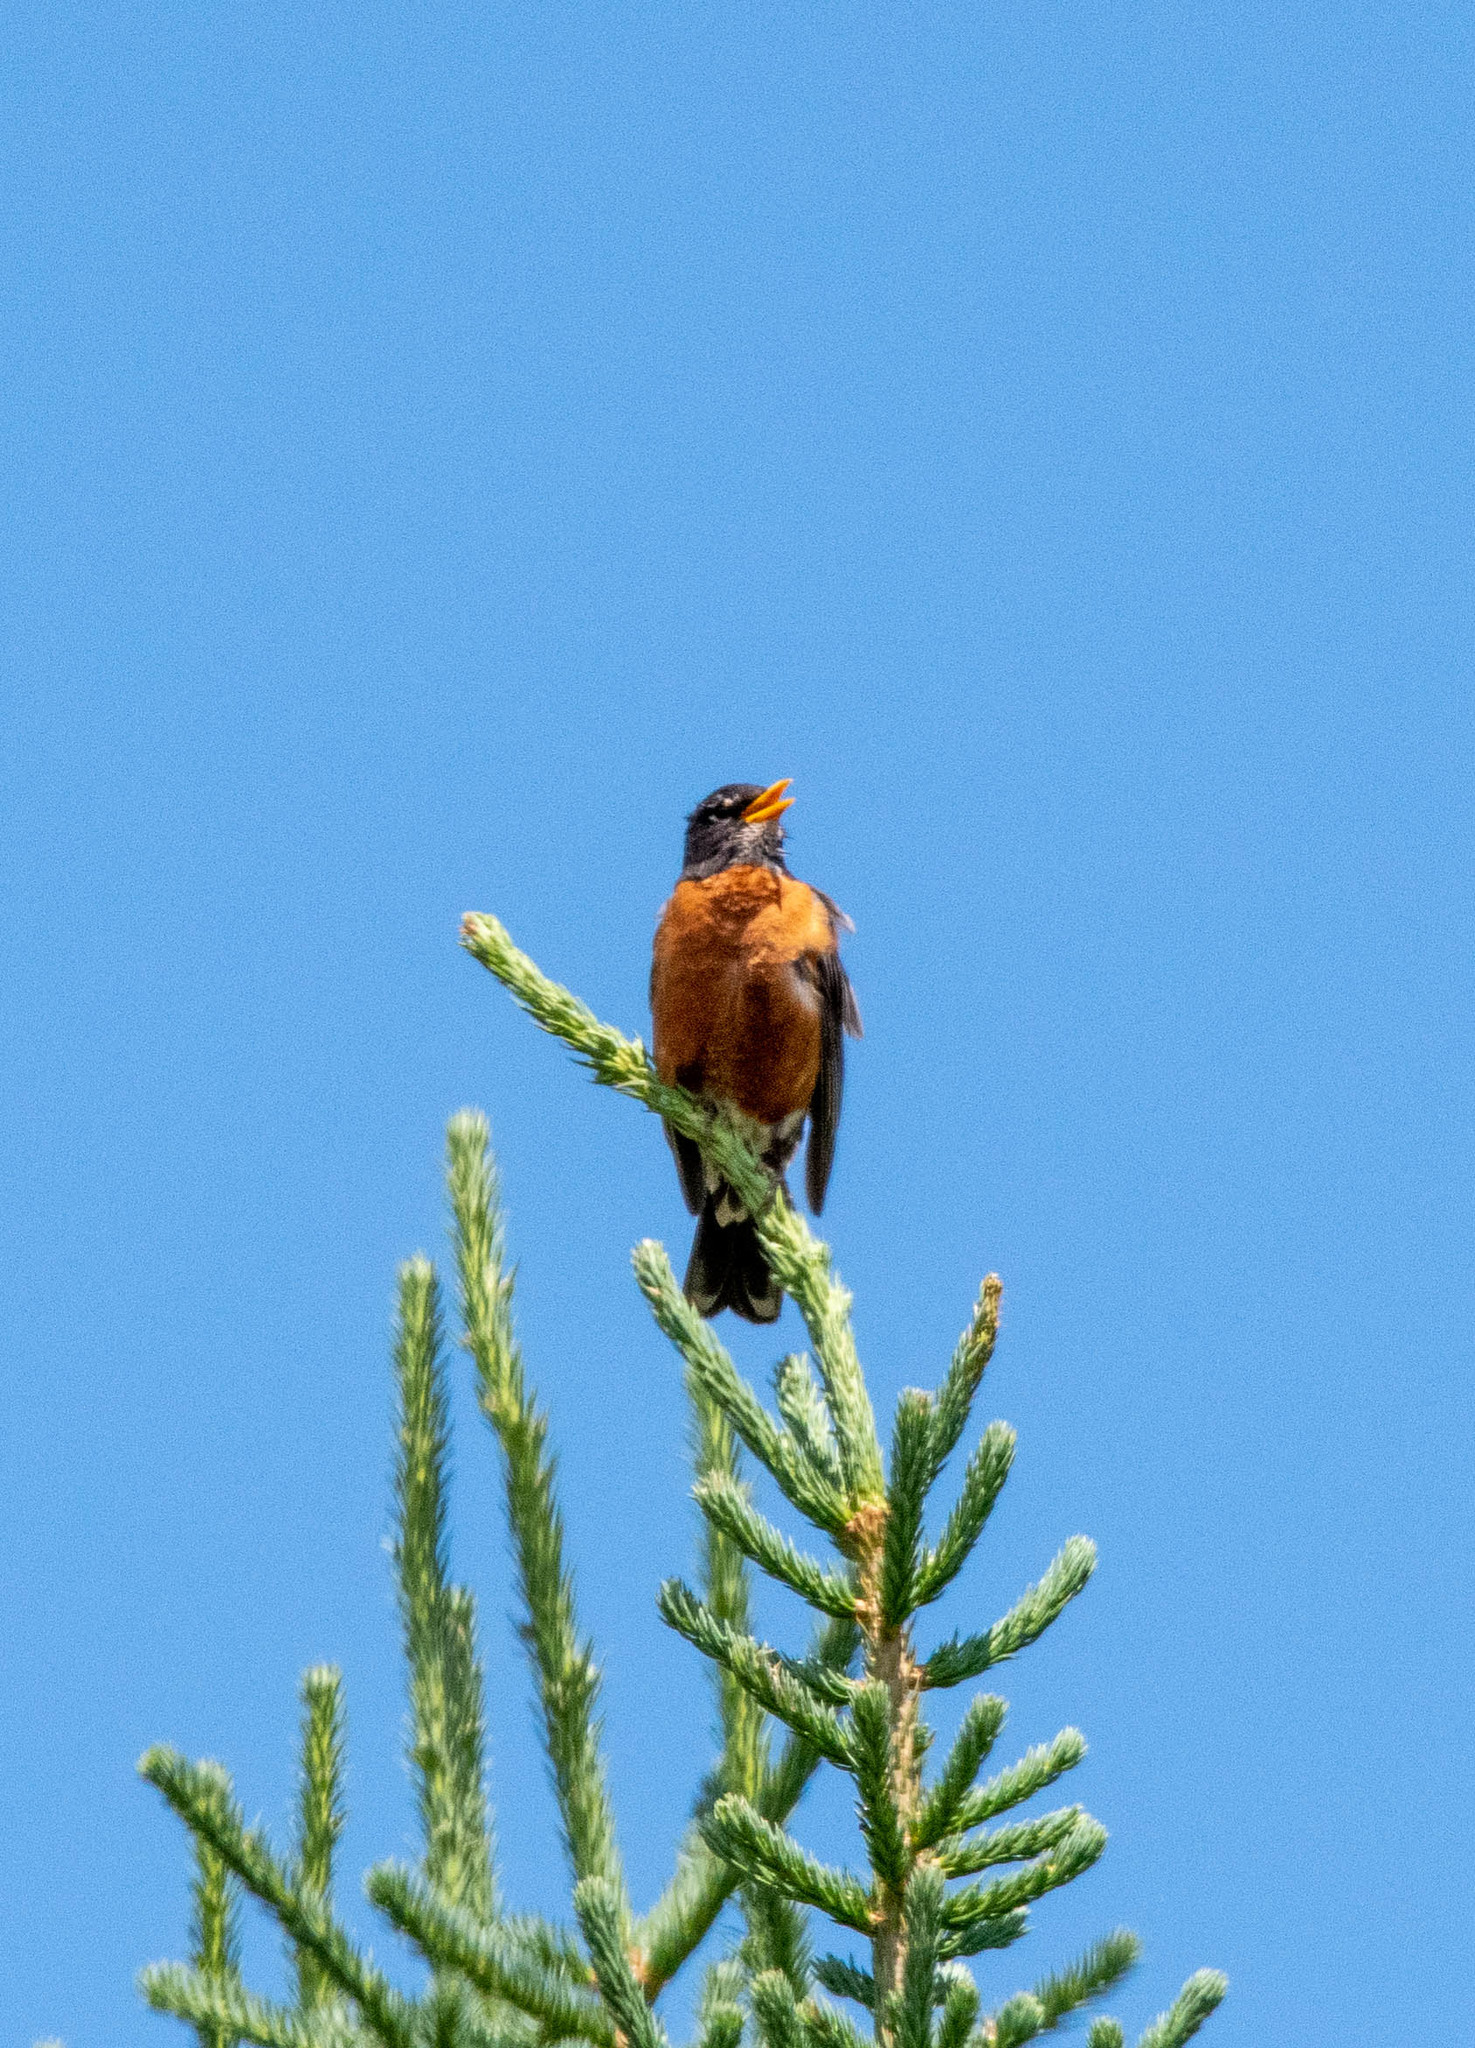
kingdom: Animalia
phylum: Chordata
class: Aves
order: Passeriformes
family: Turdidae
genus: Turdus
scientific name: Turdus migratorius
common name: American robin
